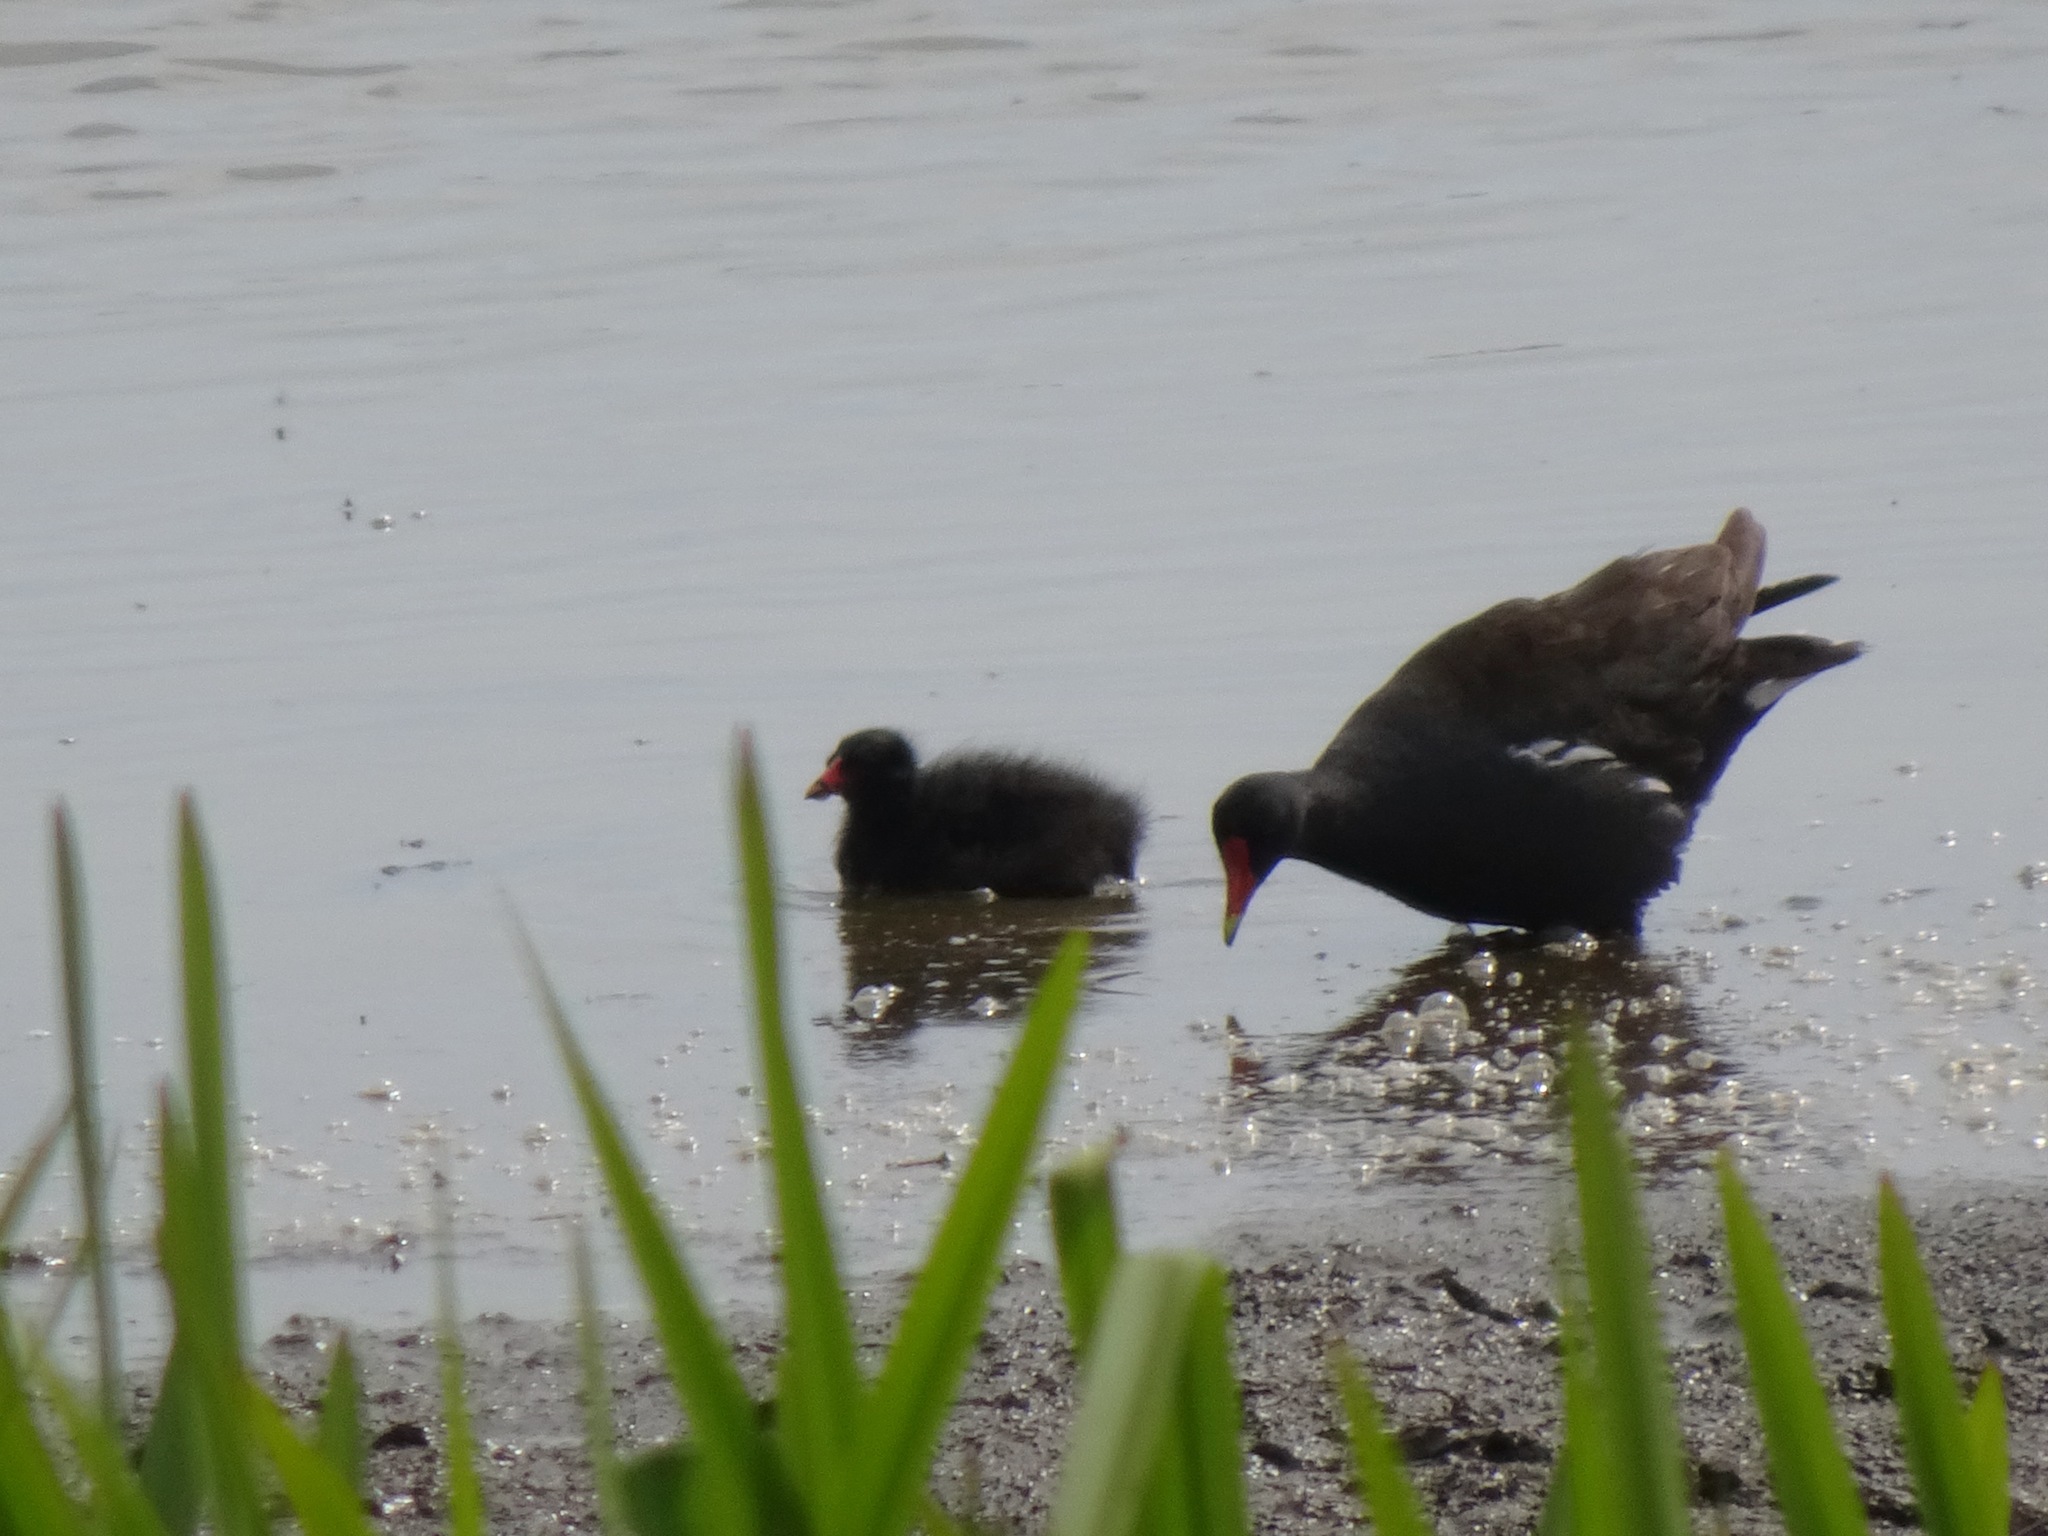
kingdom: Animalia
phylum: Chordata
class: Aves
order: Gruiformes
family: Rallidae
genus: Gallinula
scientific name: Gallinula chloropus
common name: Common moorhen
